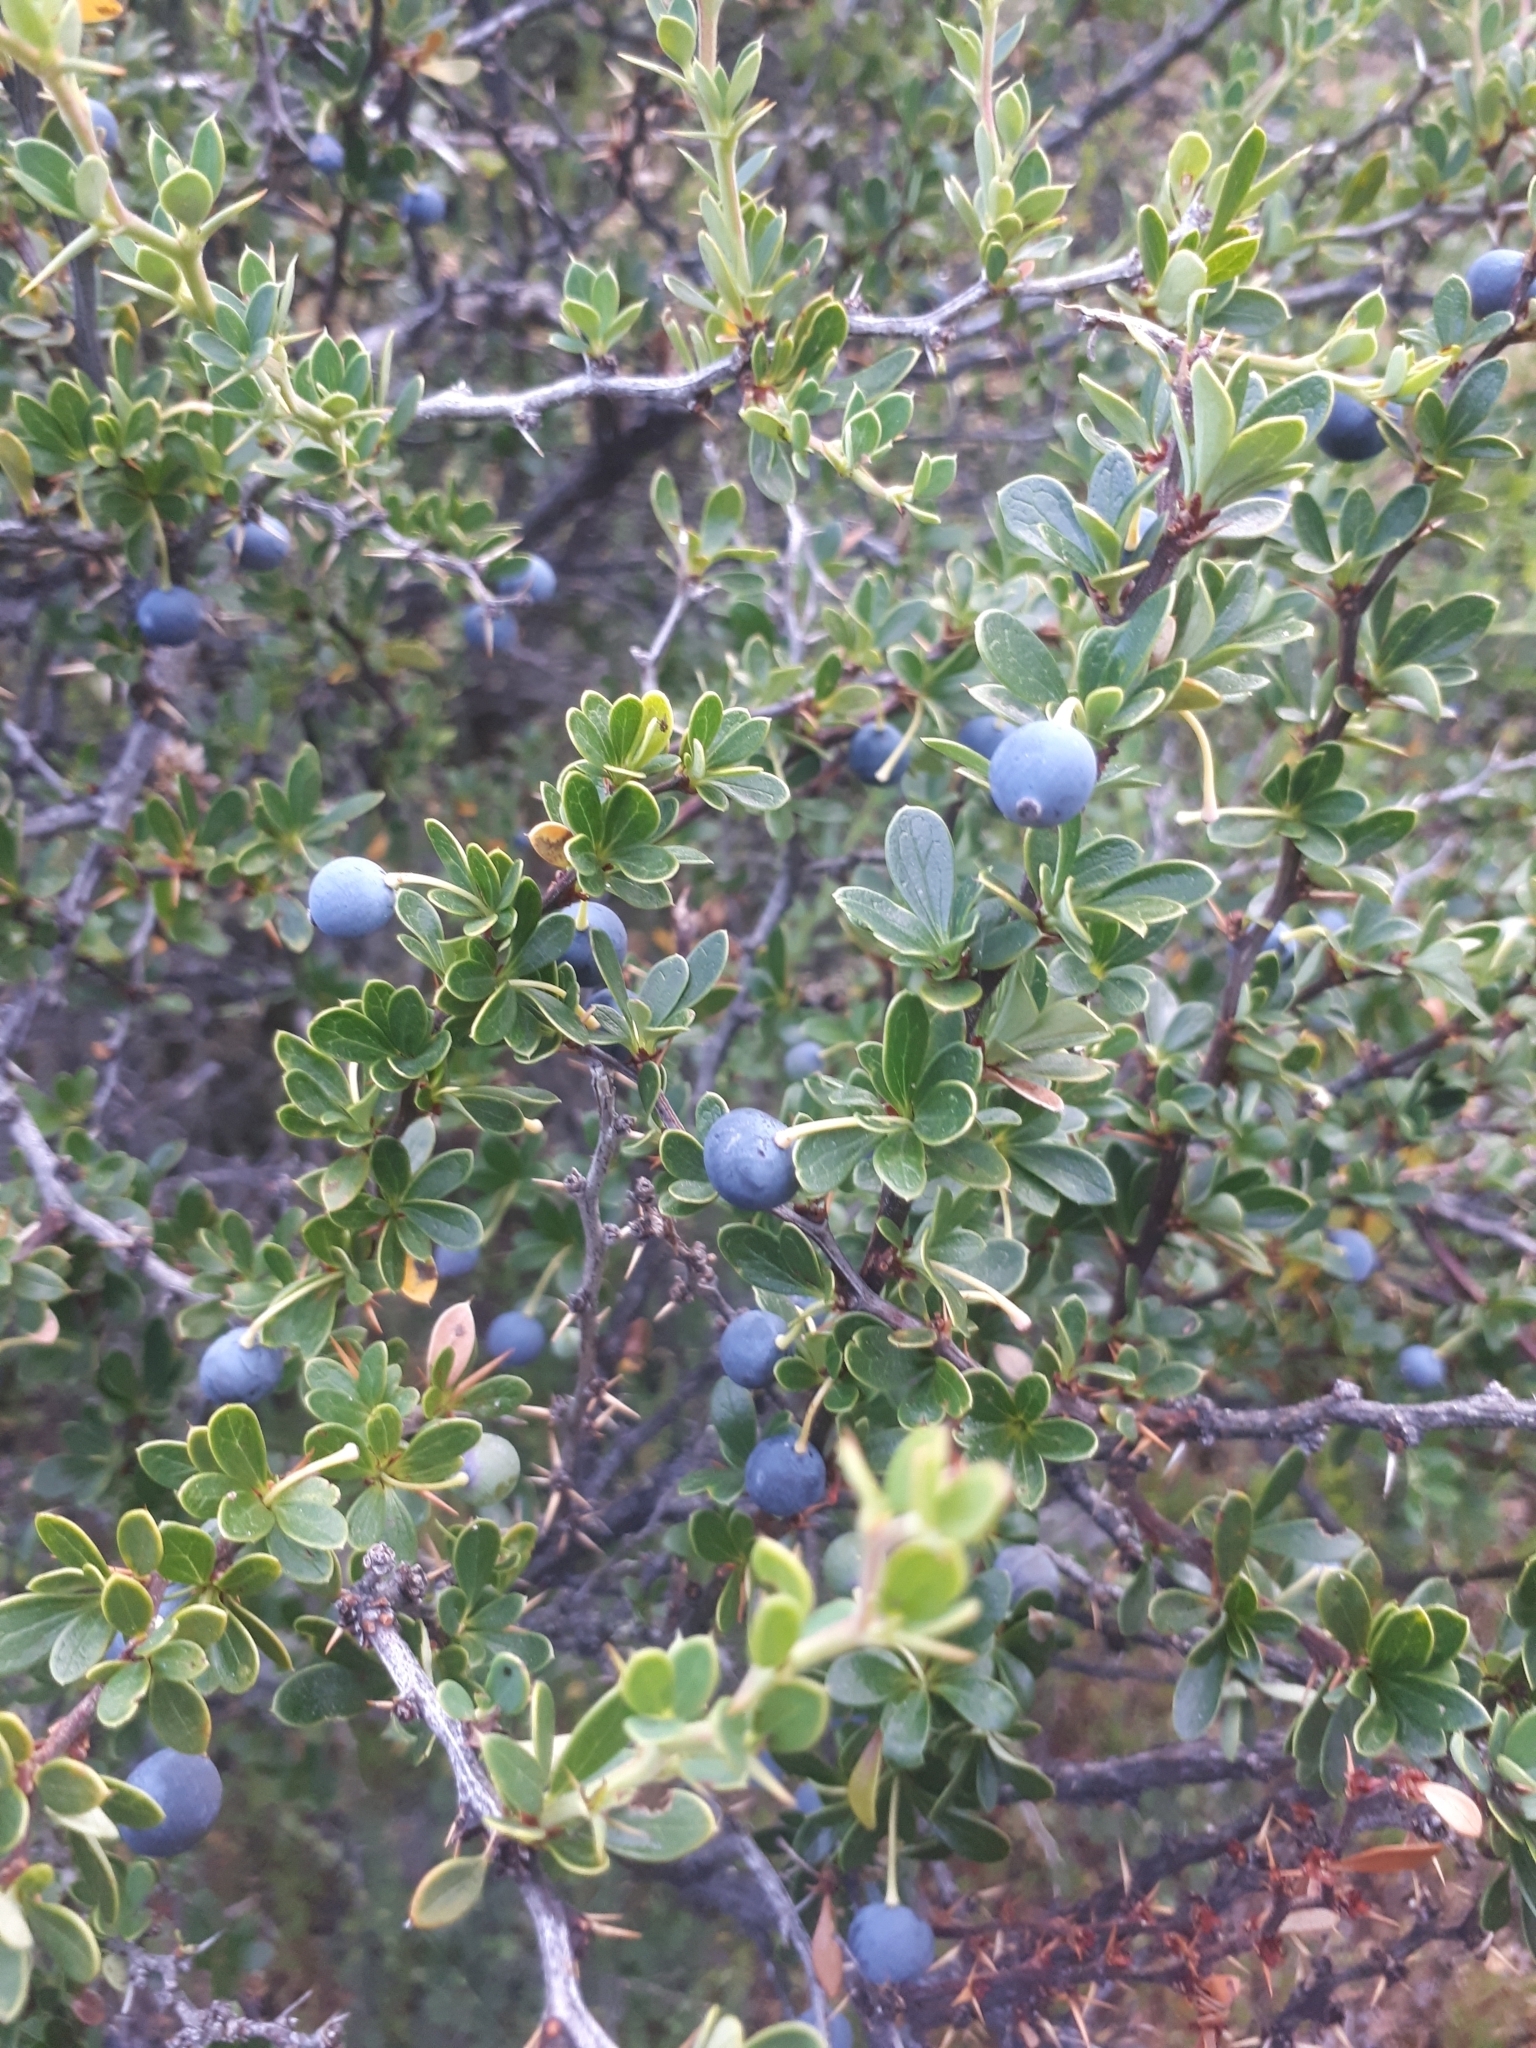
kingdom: Plantae
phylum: Tracheophyta
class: Magnoliopsida
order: Ranunculales
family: Berberidaceae
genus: Berberis
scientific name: Berberis microphylla
